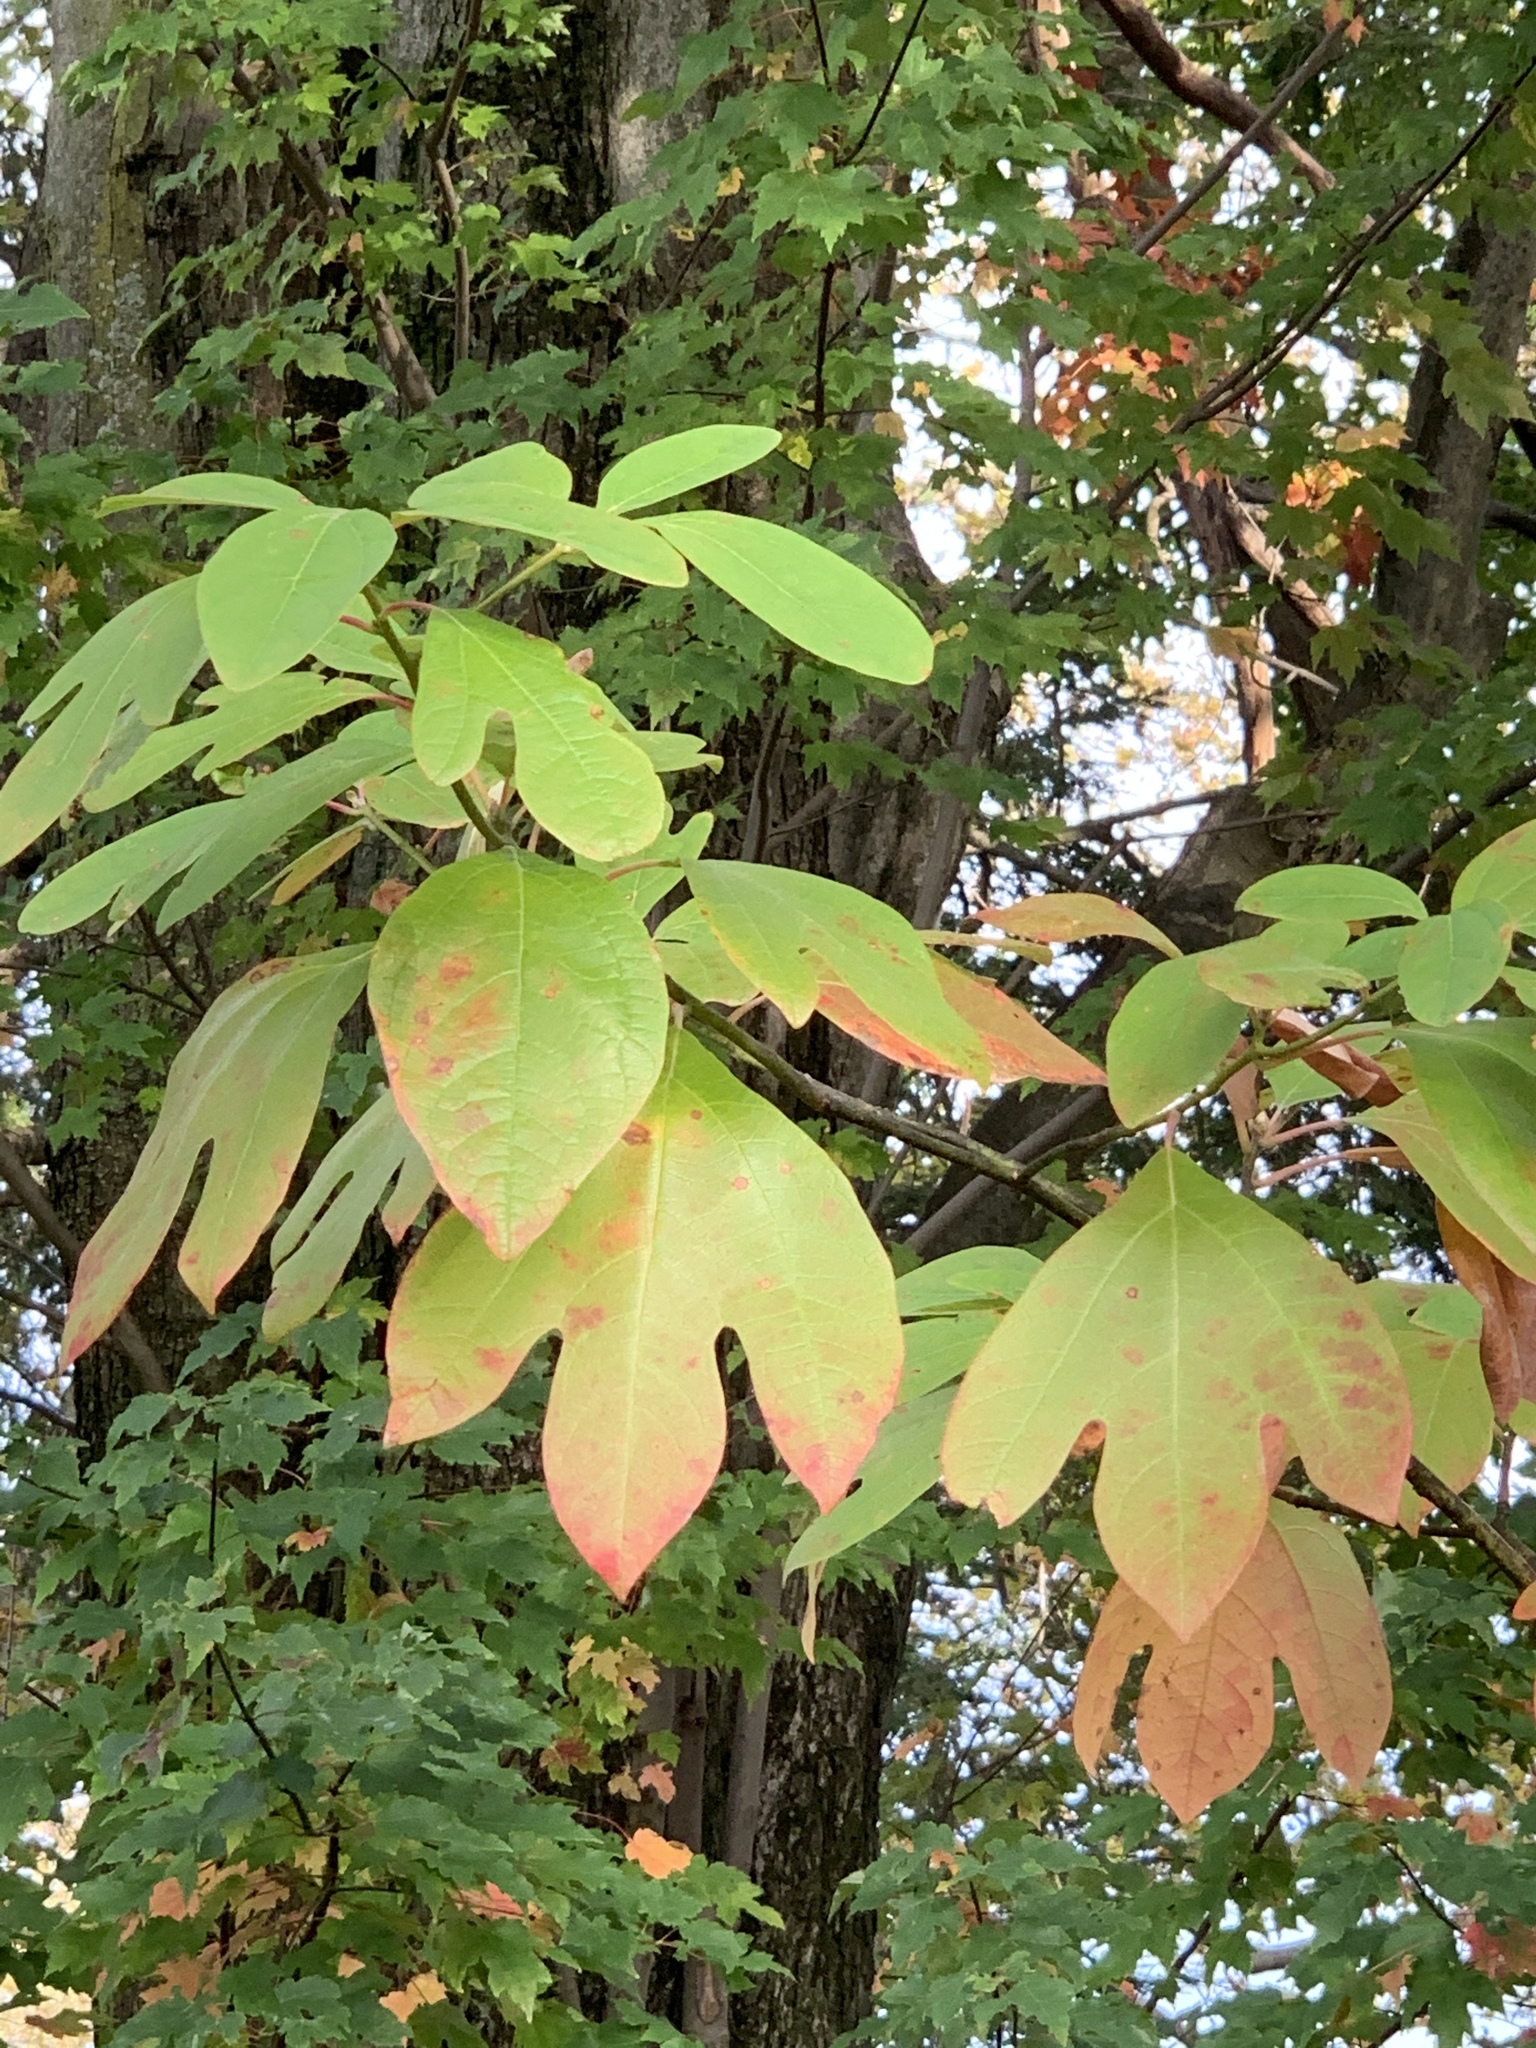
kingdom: Plantae
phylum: Tracheophyta
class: Magnoliopsida
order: Laurales
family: Lauraceae
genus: Sassafras
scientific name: Sassafras albidum
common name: Sassafras
